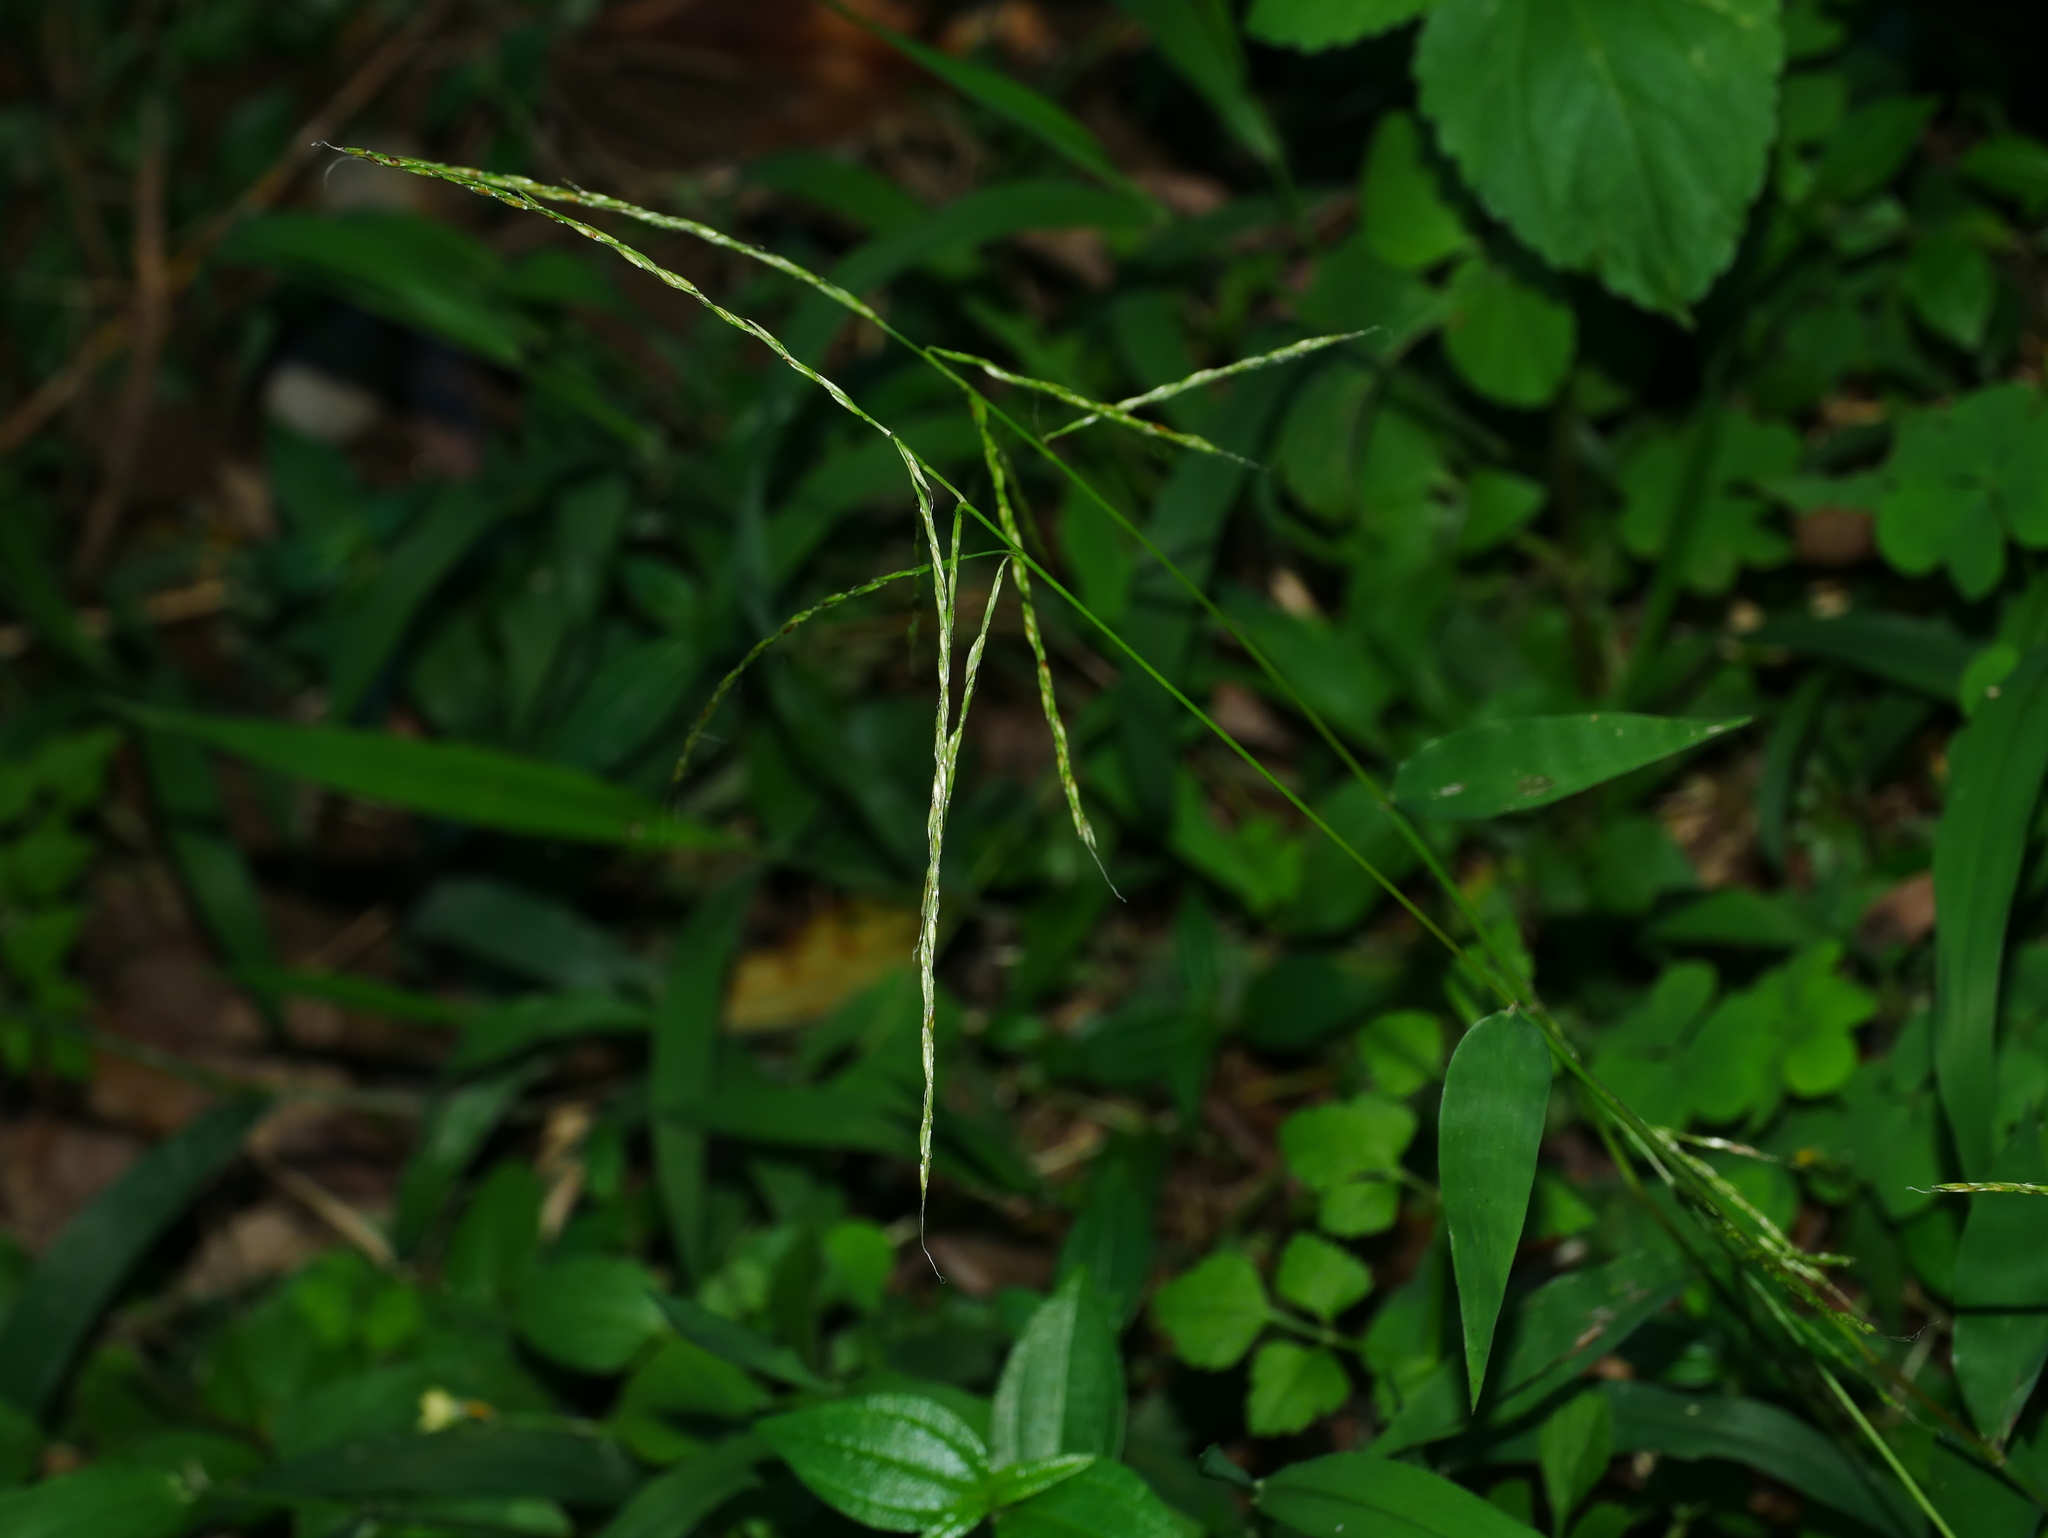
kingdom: Plantae
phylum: Tracheophyta
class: Liliopsida
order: Poales
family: Poaceae
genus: Microstegium
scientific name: Microstegium japonicum
